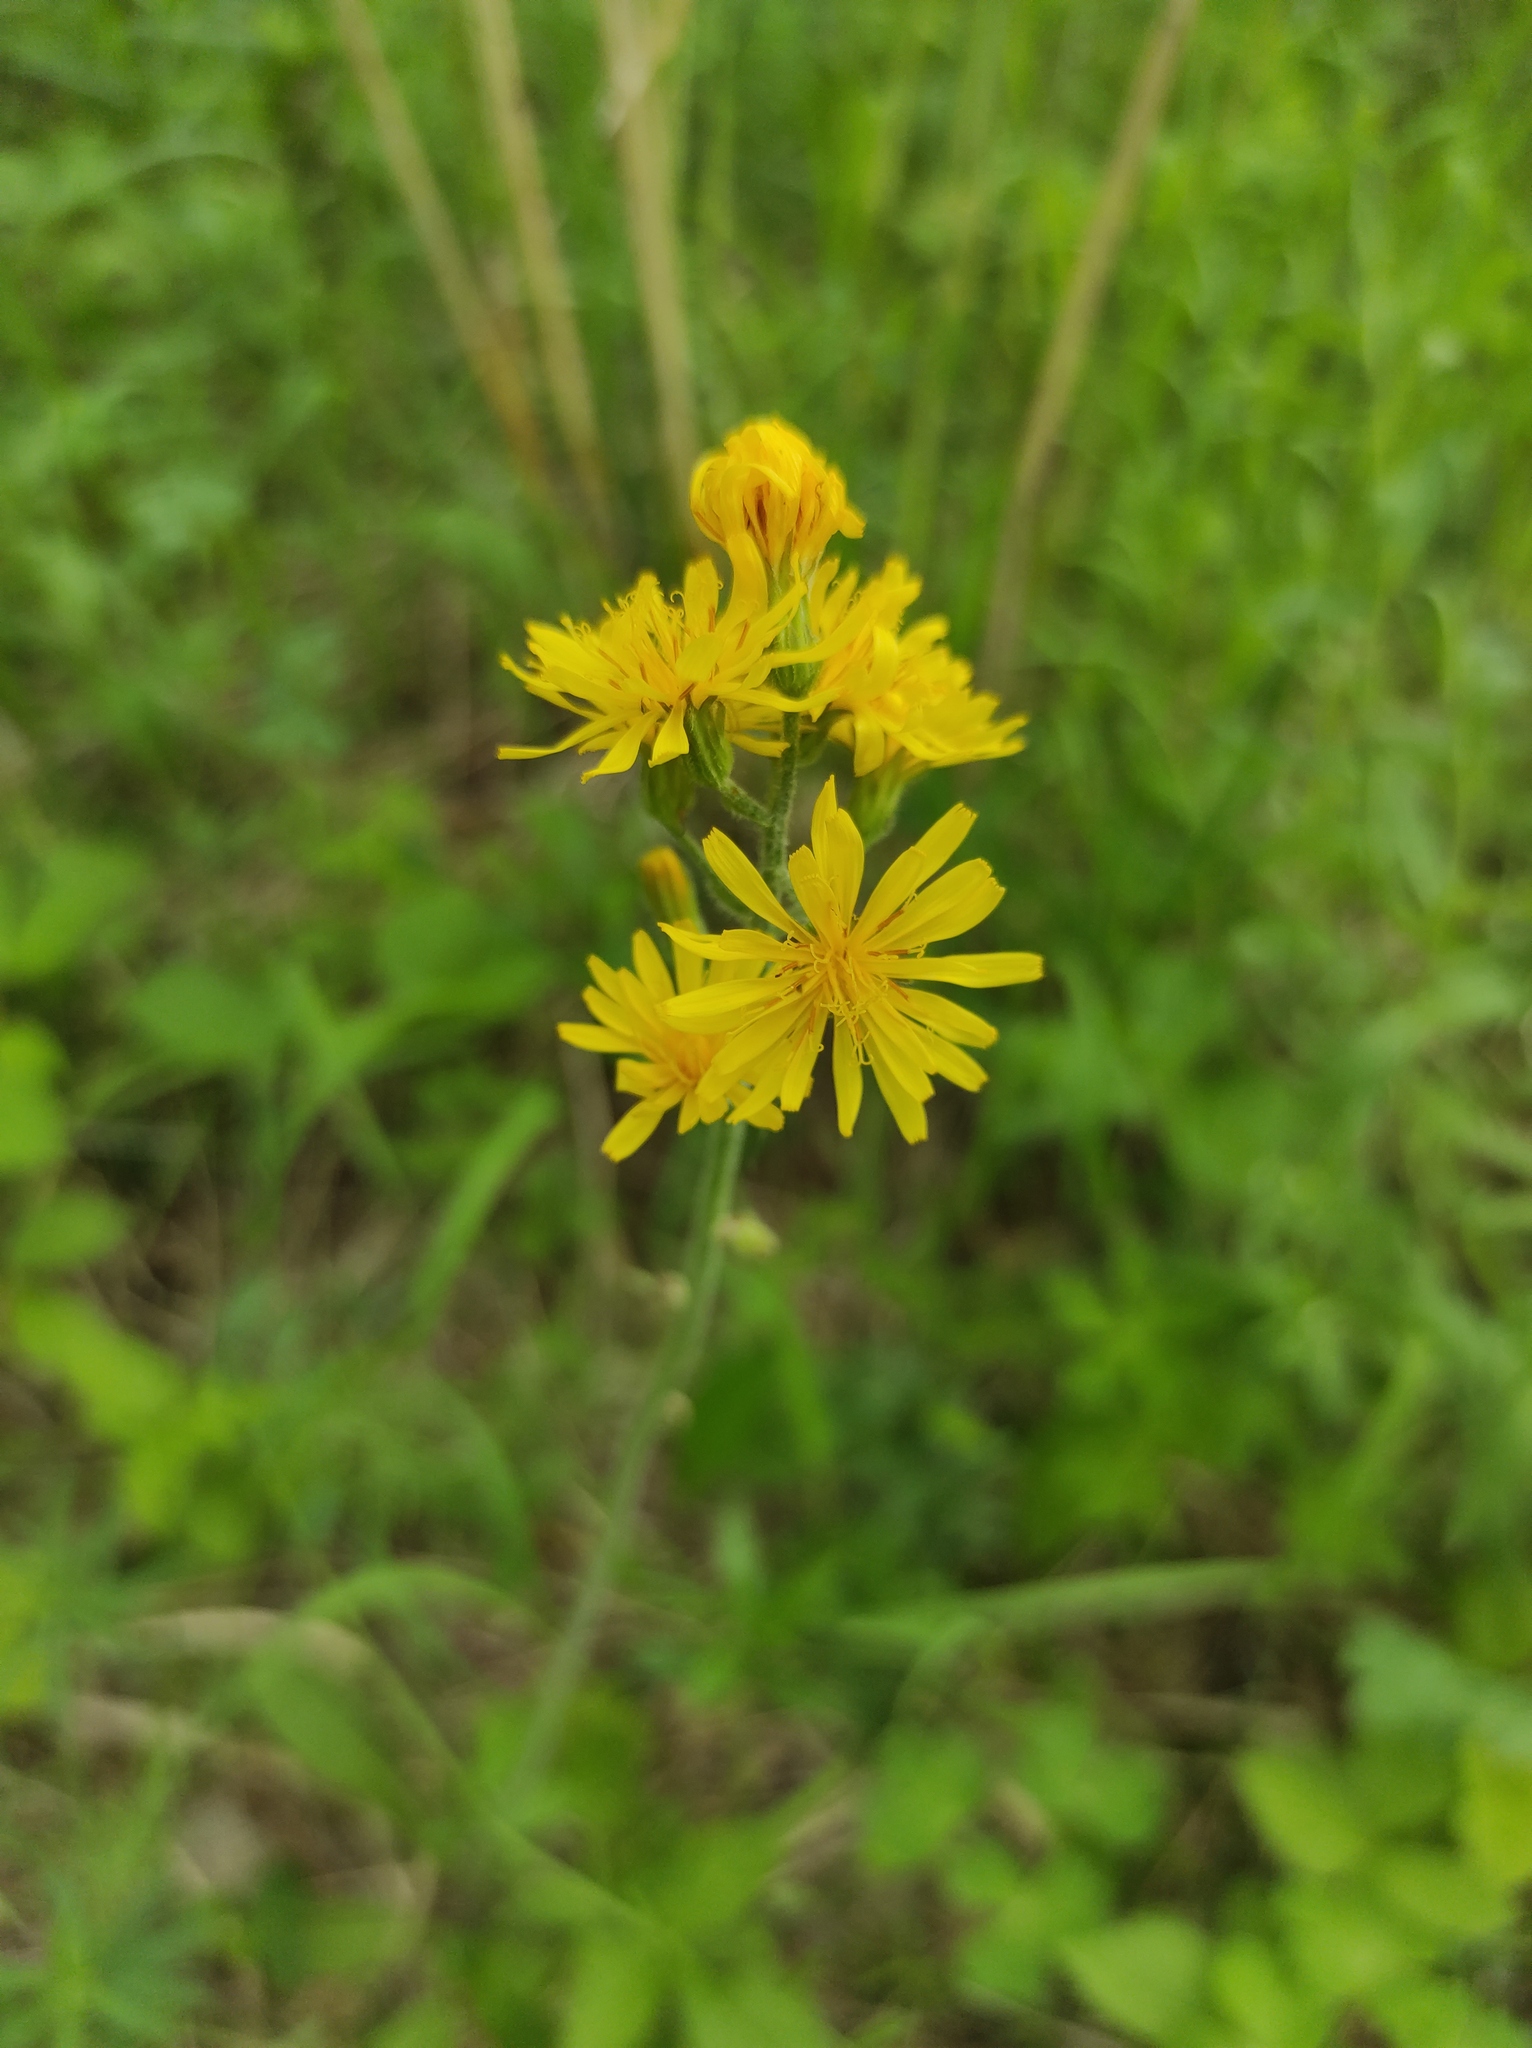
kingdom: Plantae
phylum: Tracheophyta
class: Magnoliopsida
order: Asterales
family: Asteraceae
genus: Crepis
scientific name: Crepis praemorsa
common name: Leafless hawk's-beard
